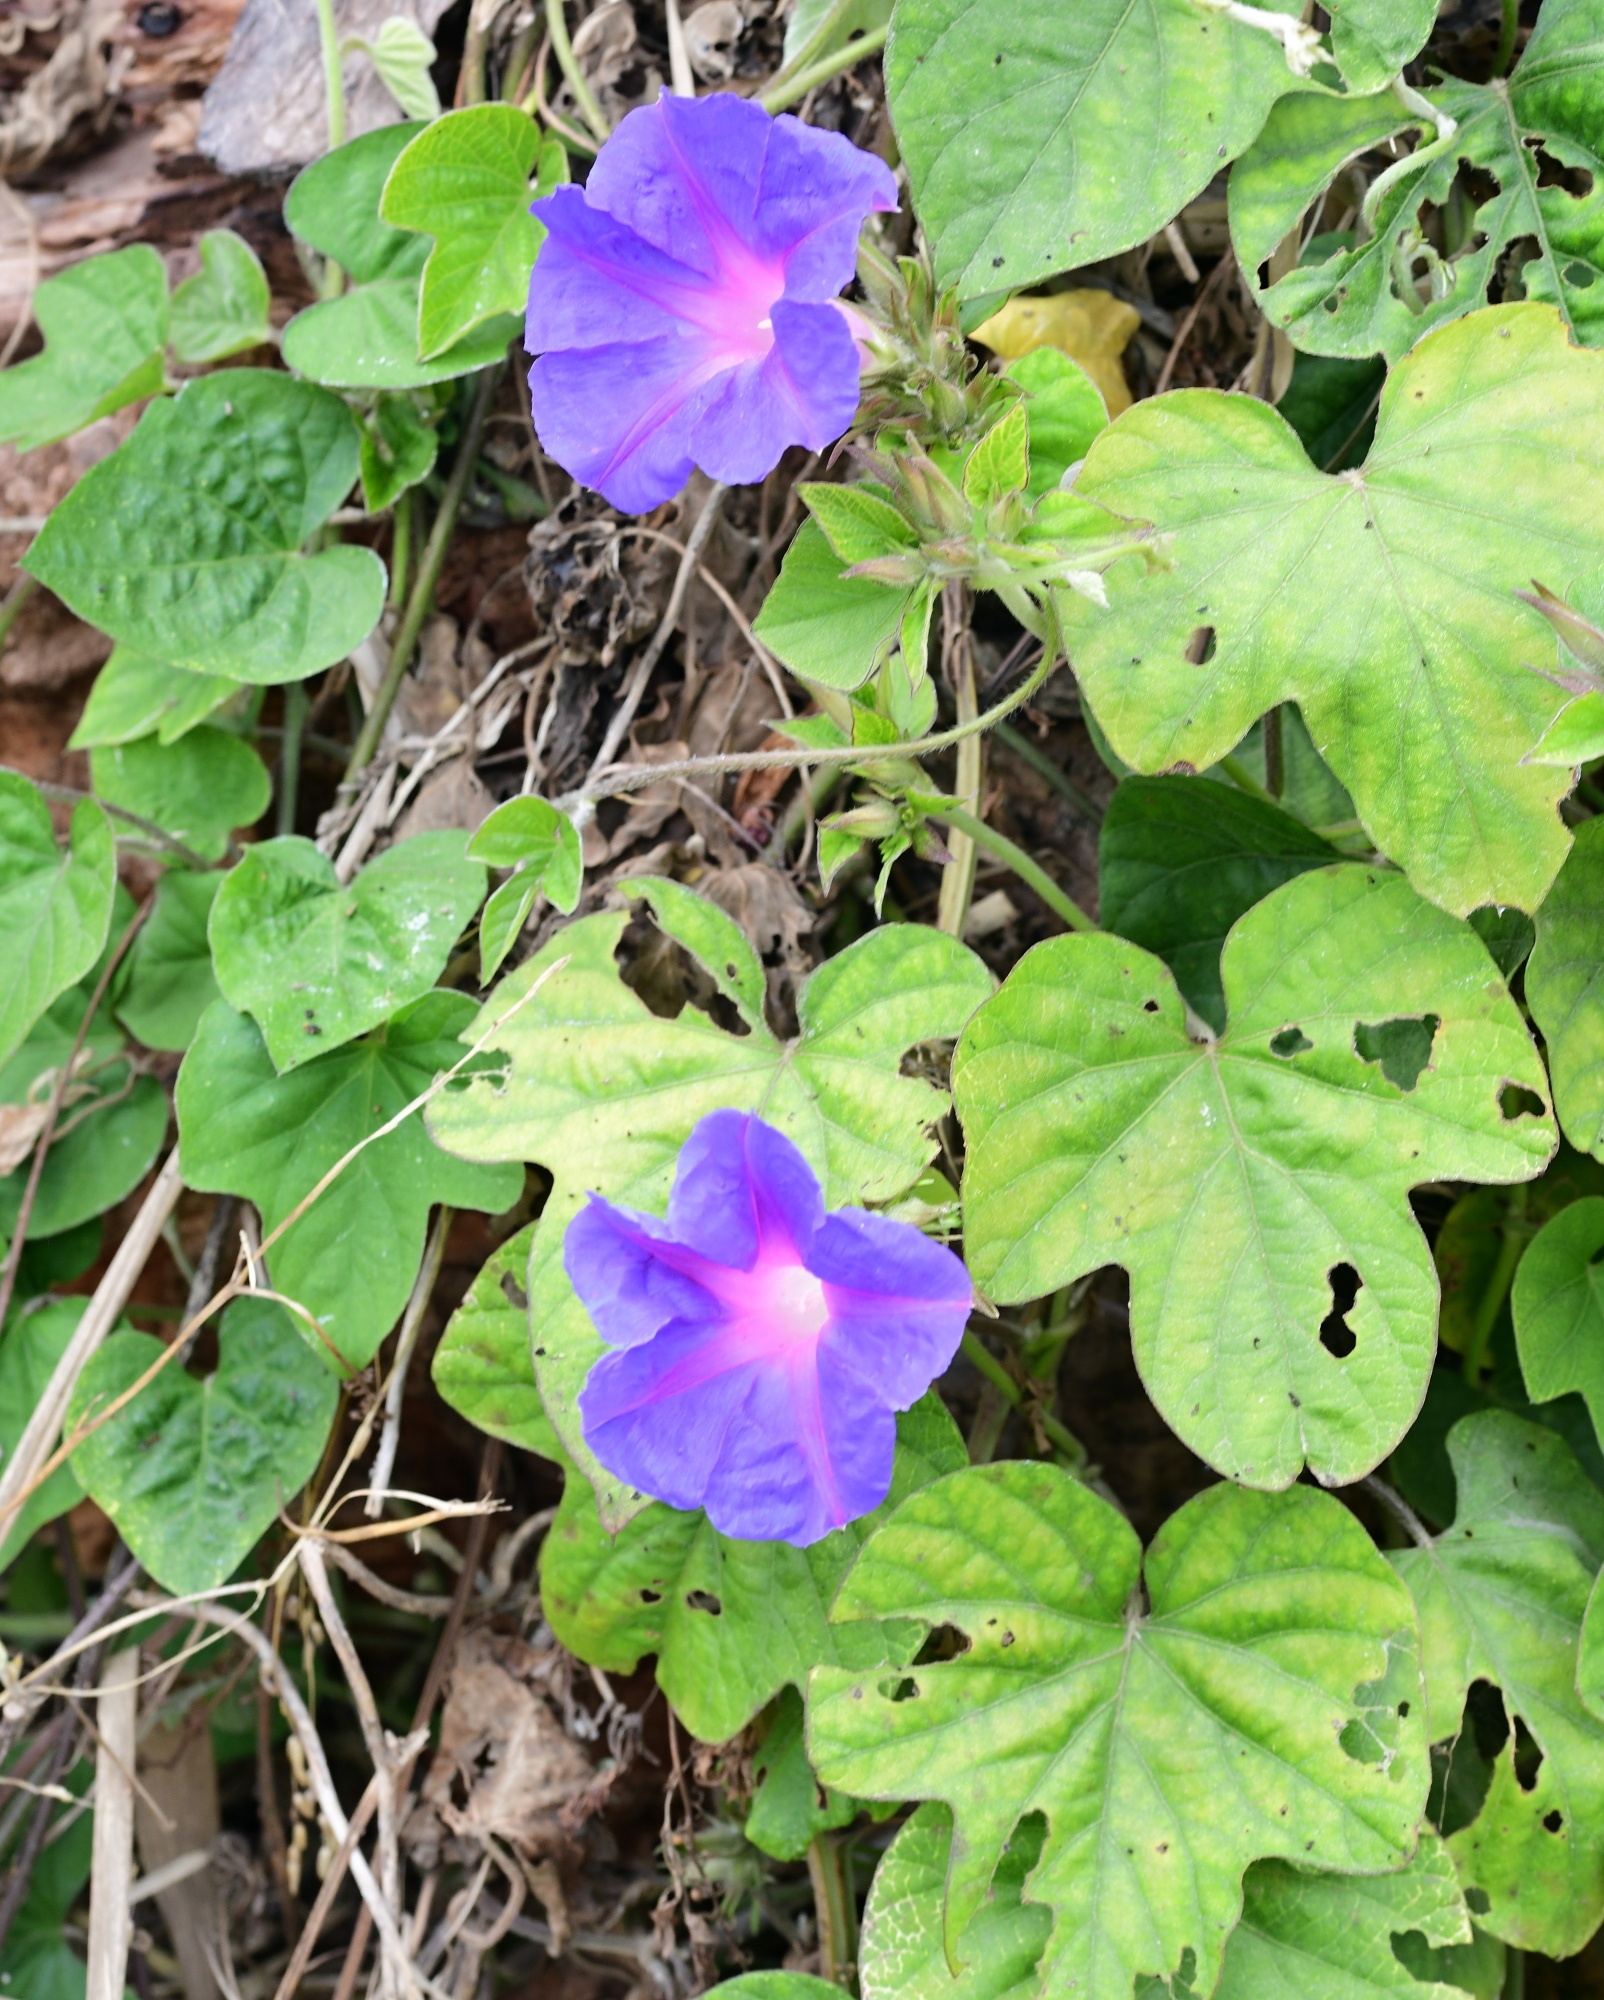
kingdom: Plantae
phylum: Tracheophyta
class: Magnoliopsida
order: Solanales
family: Convolvulaceae
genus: Ipomoea
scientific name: Ipomoea indica
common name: Blue dawnflower
